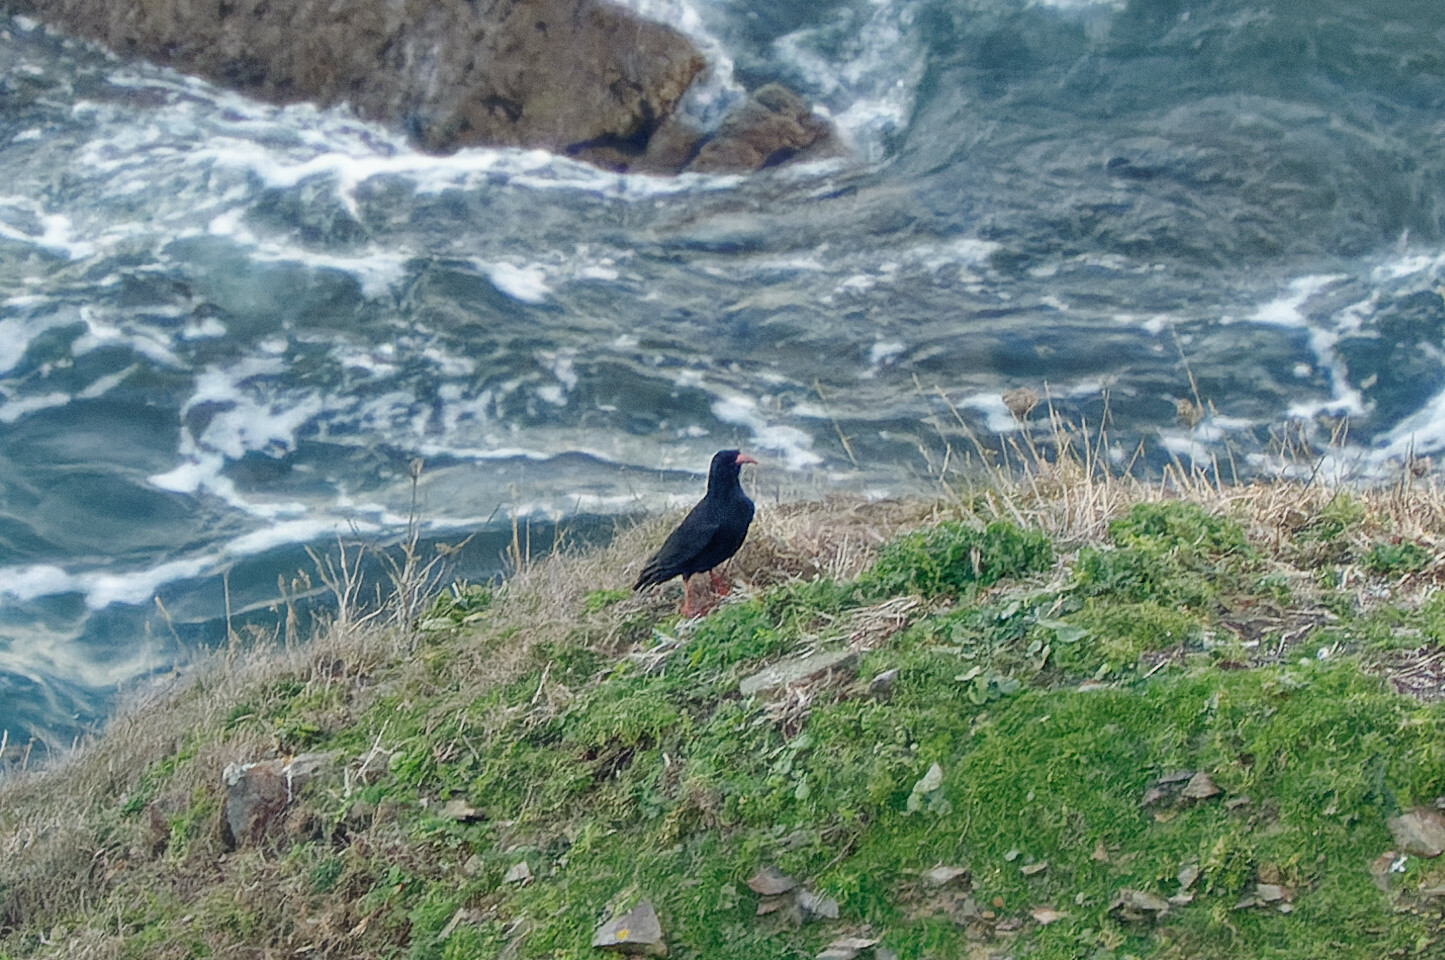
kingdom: Animalia
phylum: Chordata
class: Aves
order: Passeriformes
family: Corvidae
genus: Pyrrhocorax
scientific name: Pyrrhocorax pyrrhocorax
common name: Red-billed chough
